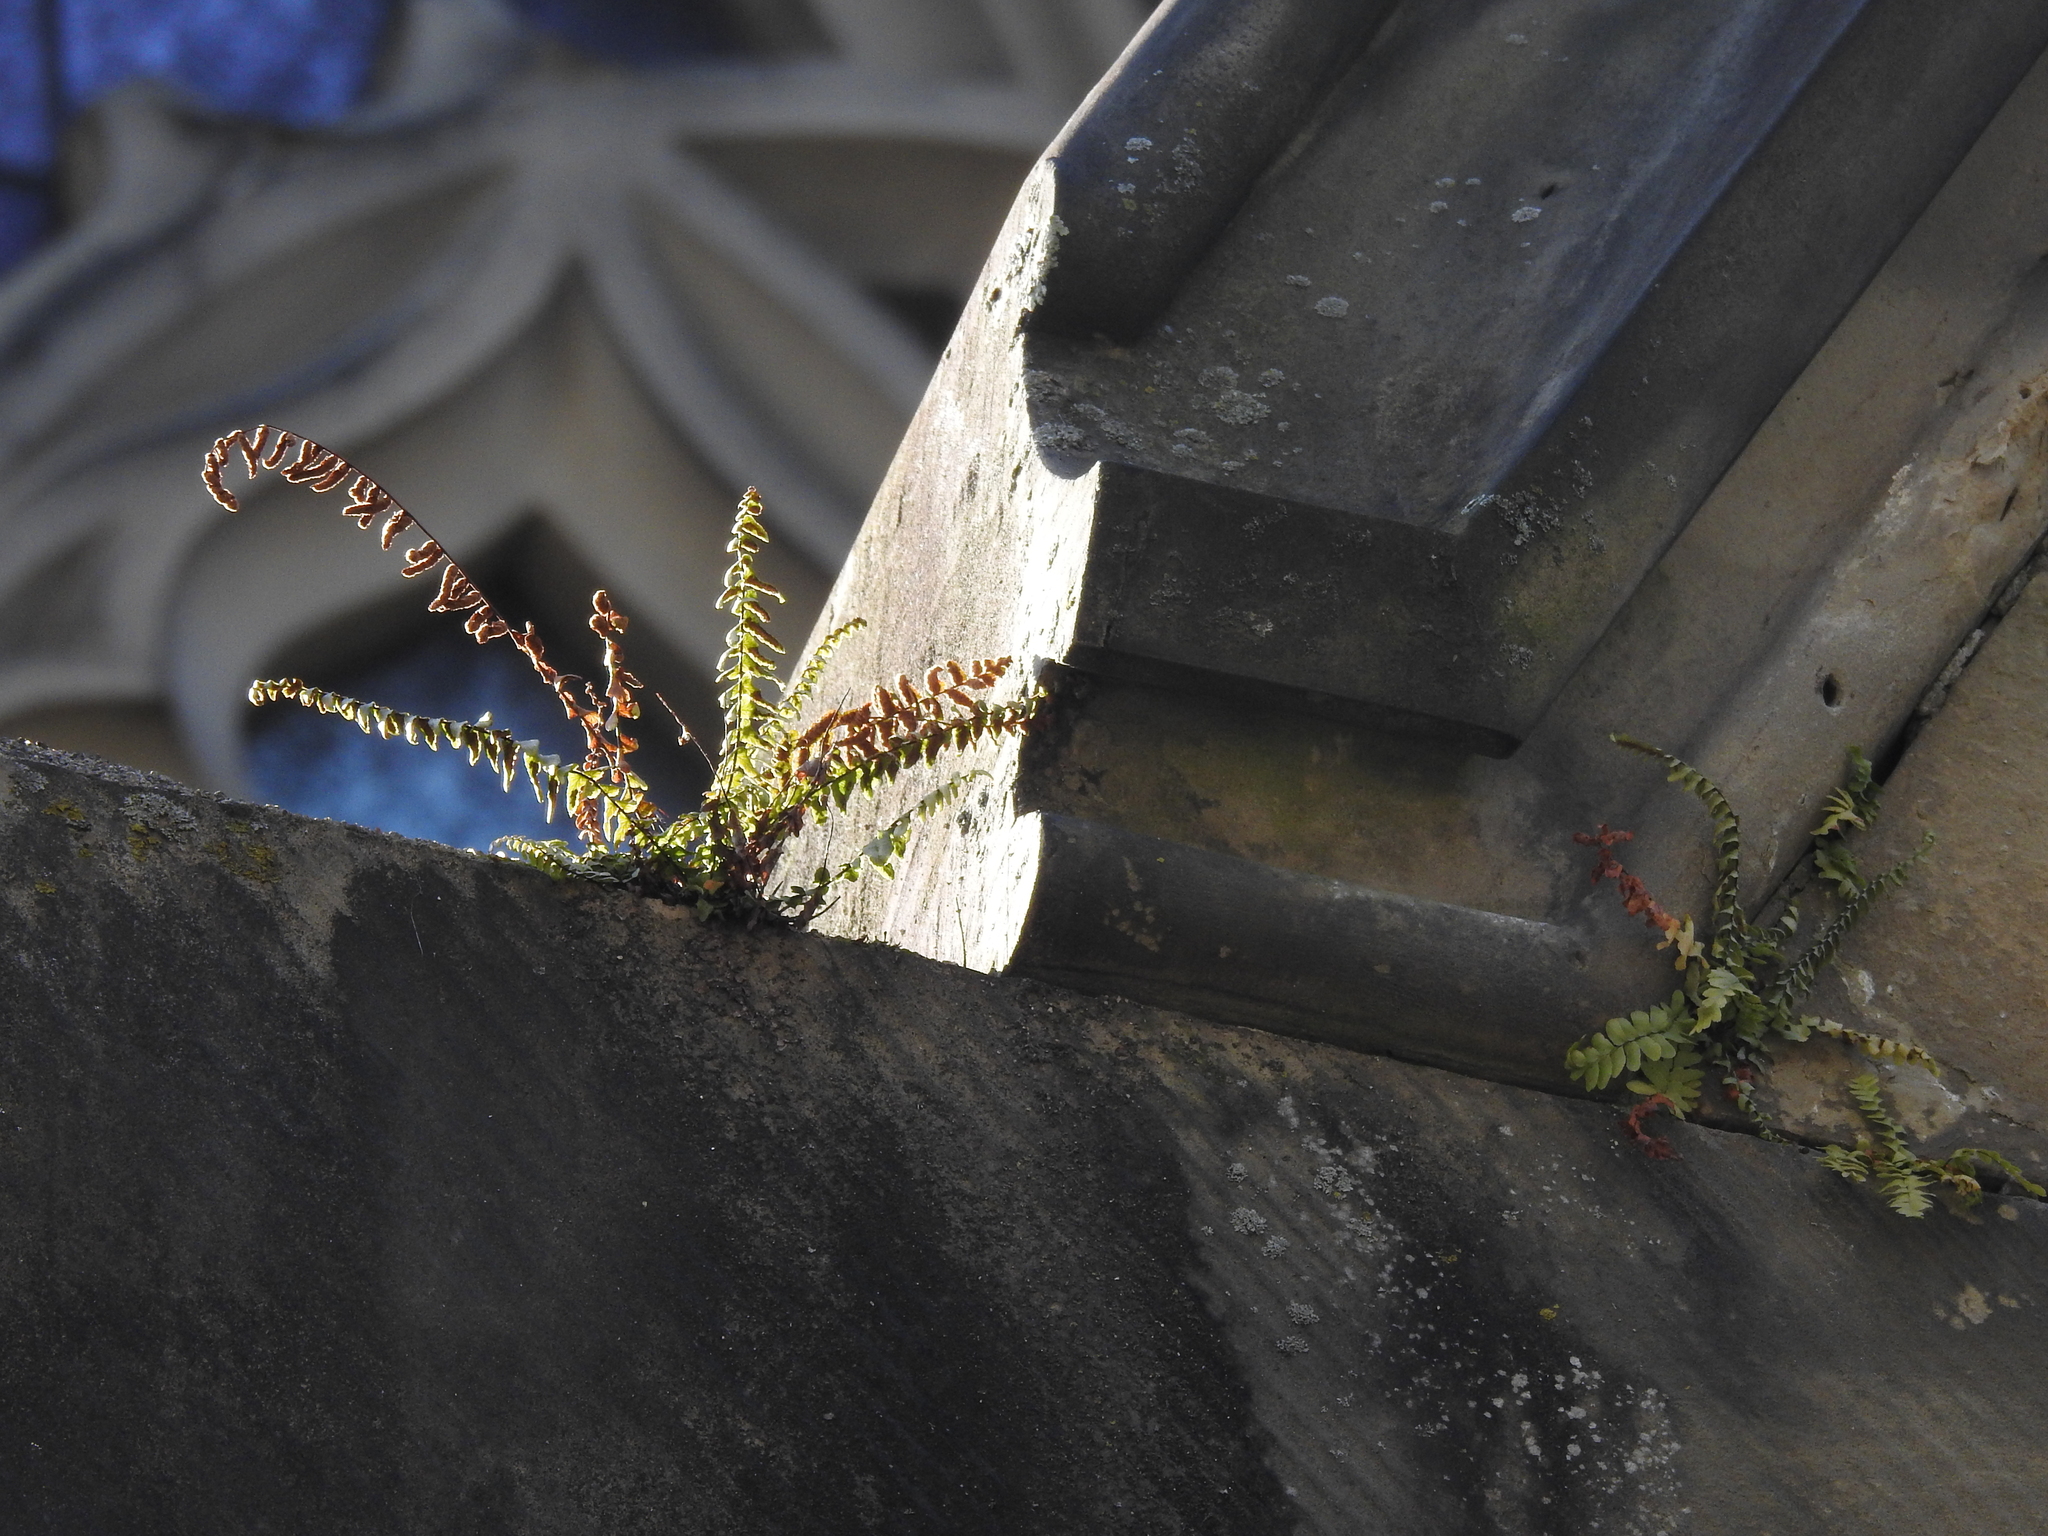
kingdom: Plantae
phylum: Tracheophyta
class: Polypodiopsida
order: Polypodiales
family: Aspleniaceae
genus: Asplenium
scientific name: Asplenium platyneuron
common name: Ebony spleenwort
